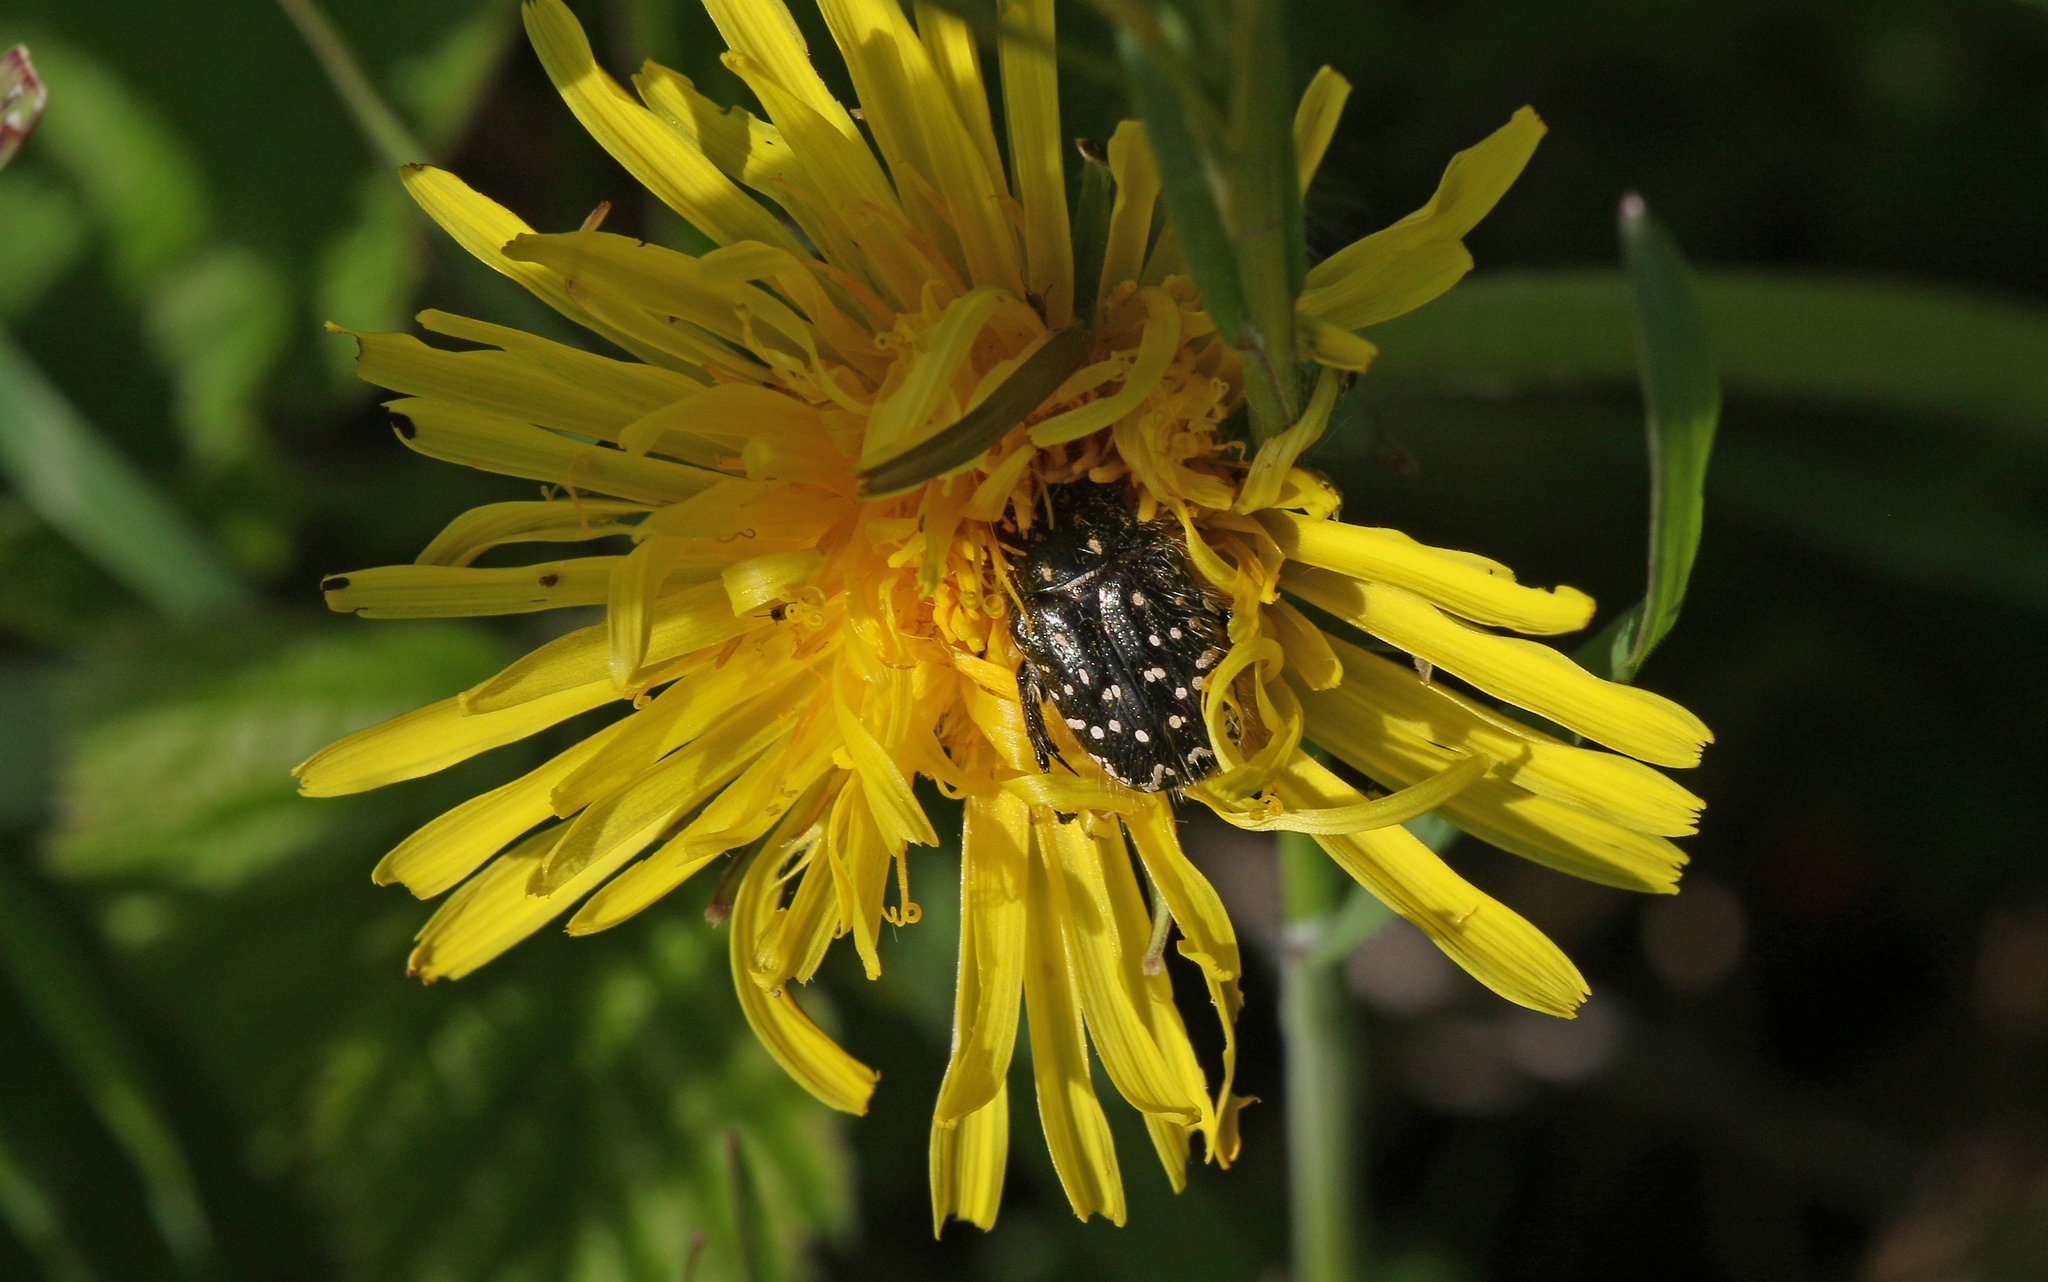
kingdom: Animalia
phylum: Arthropoda
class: Insecta
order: Coleoptera
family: Scarabaeidae
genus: Oxythyrea
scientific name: Oxythyrea funesta
